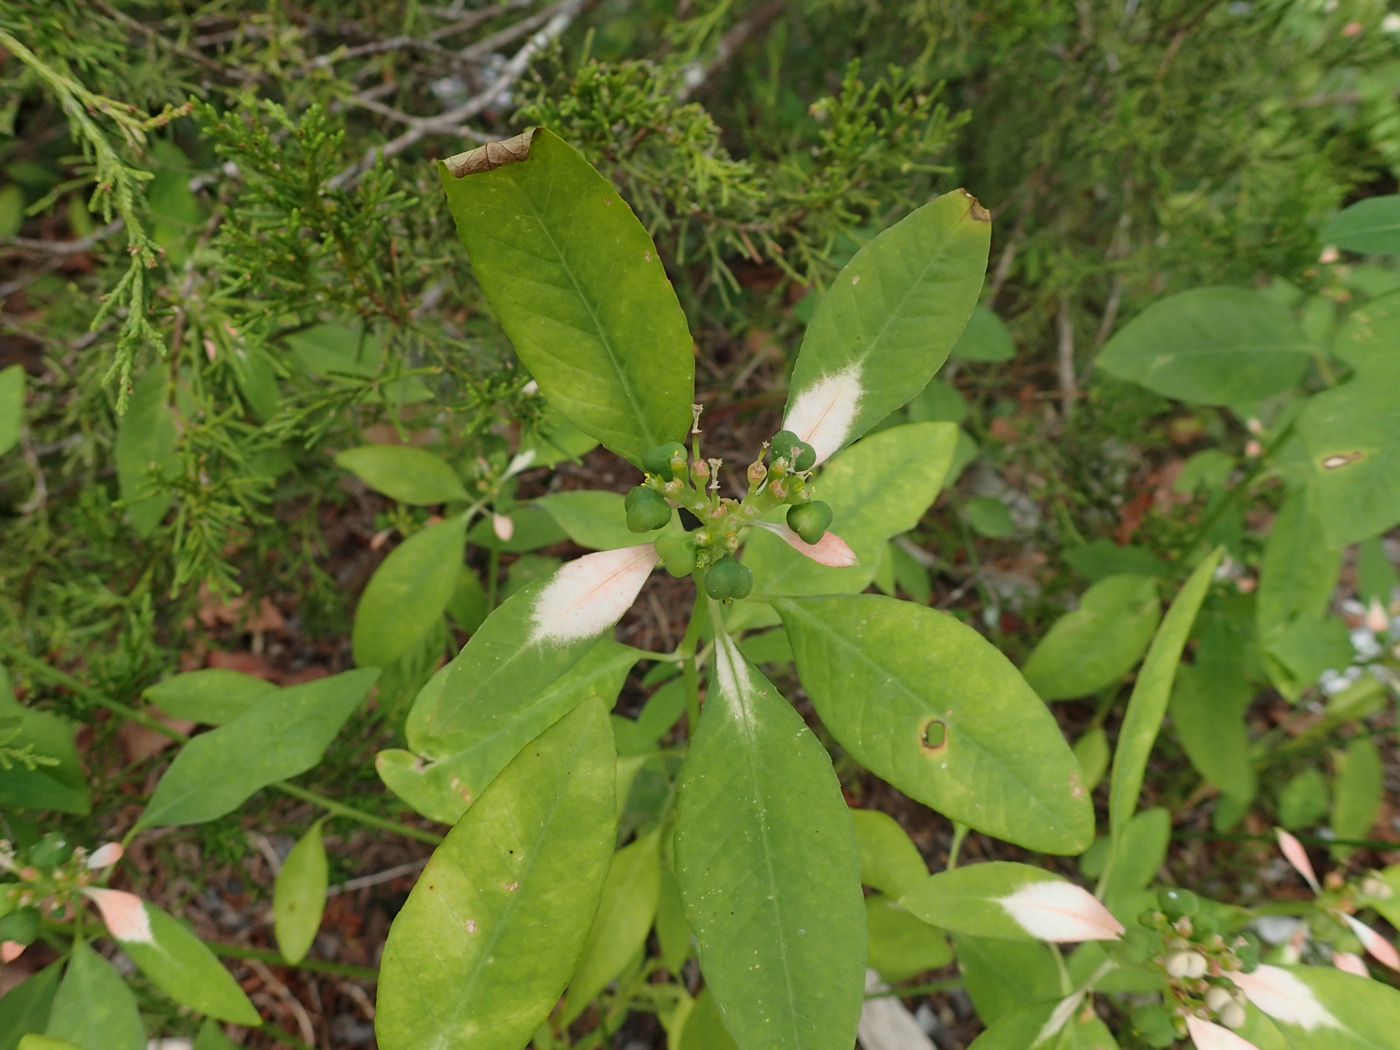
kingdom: Plantae
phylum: Tracheophyta
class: Magnoliopsida
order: Malpighiales
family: Euphorbiaceae
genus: Euphorbia
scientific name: Euphorbia heterophylla
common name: Mexican fireplant
